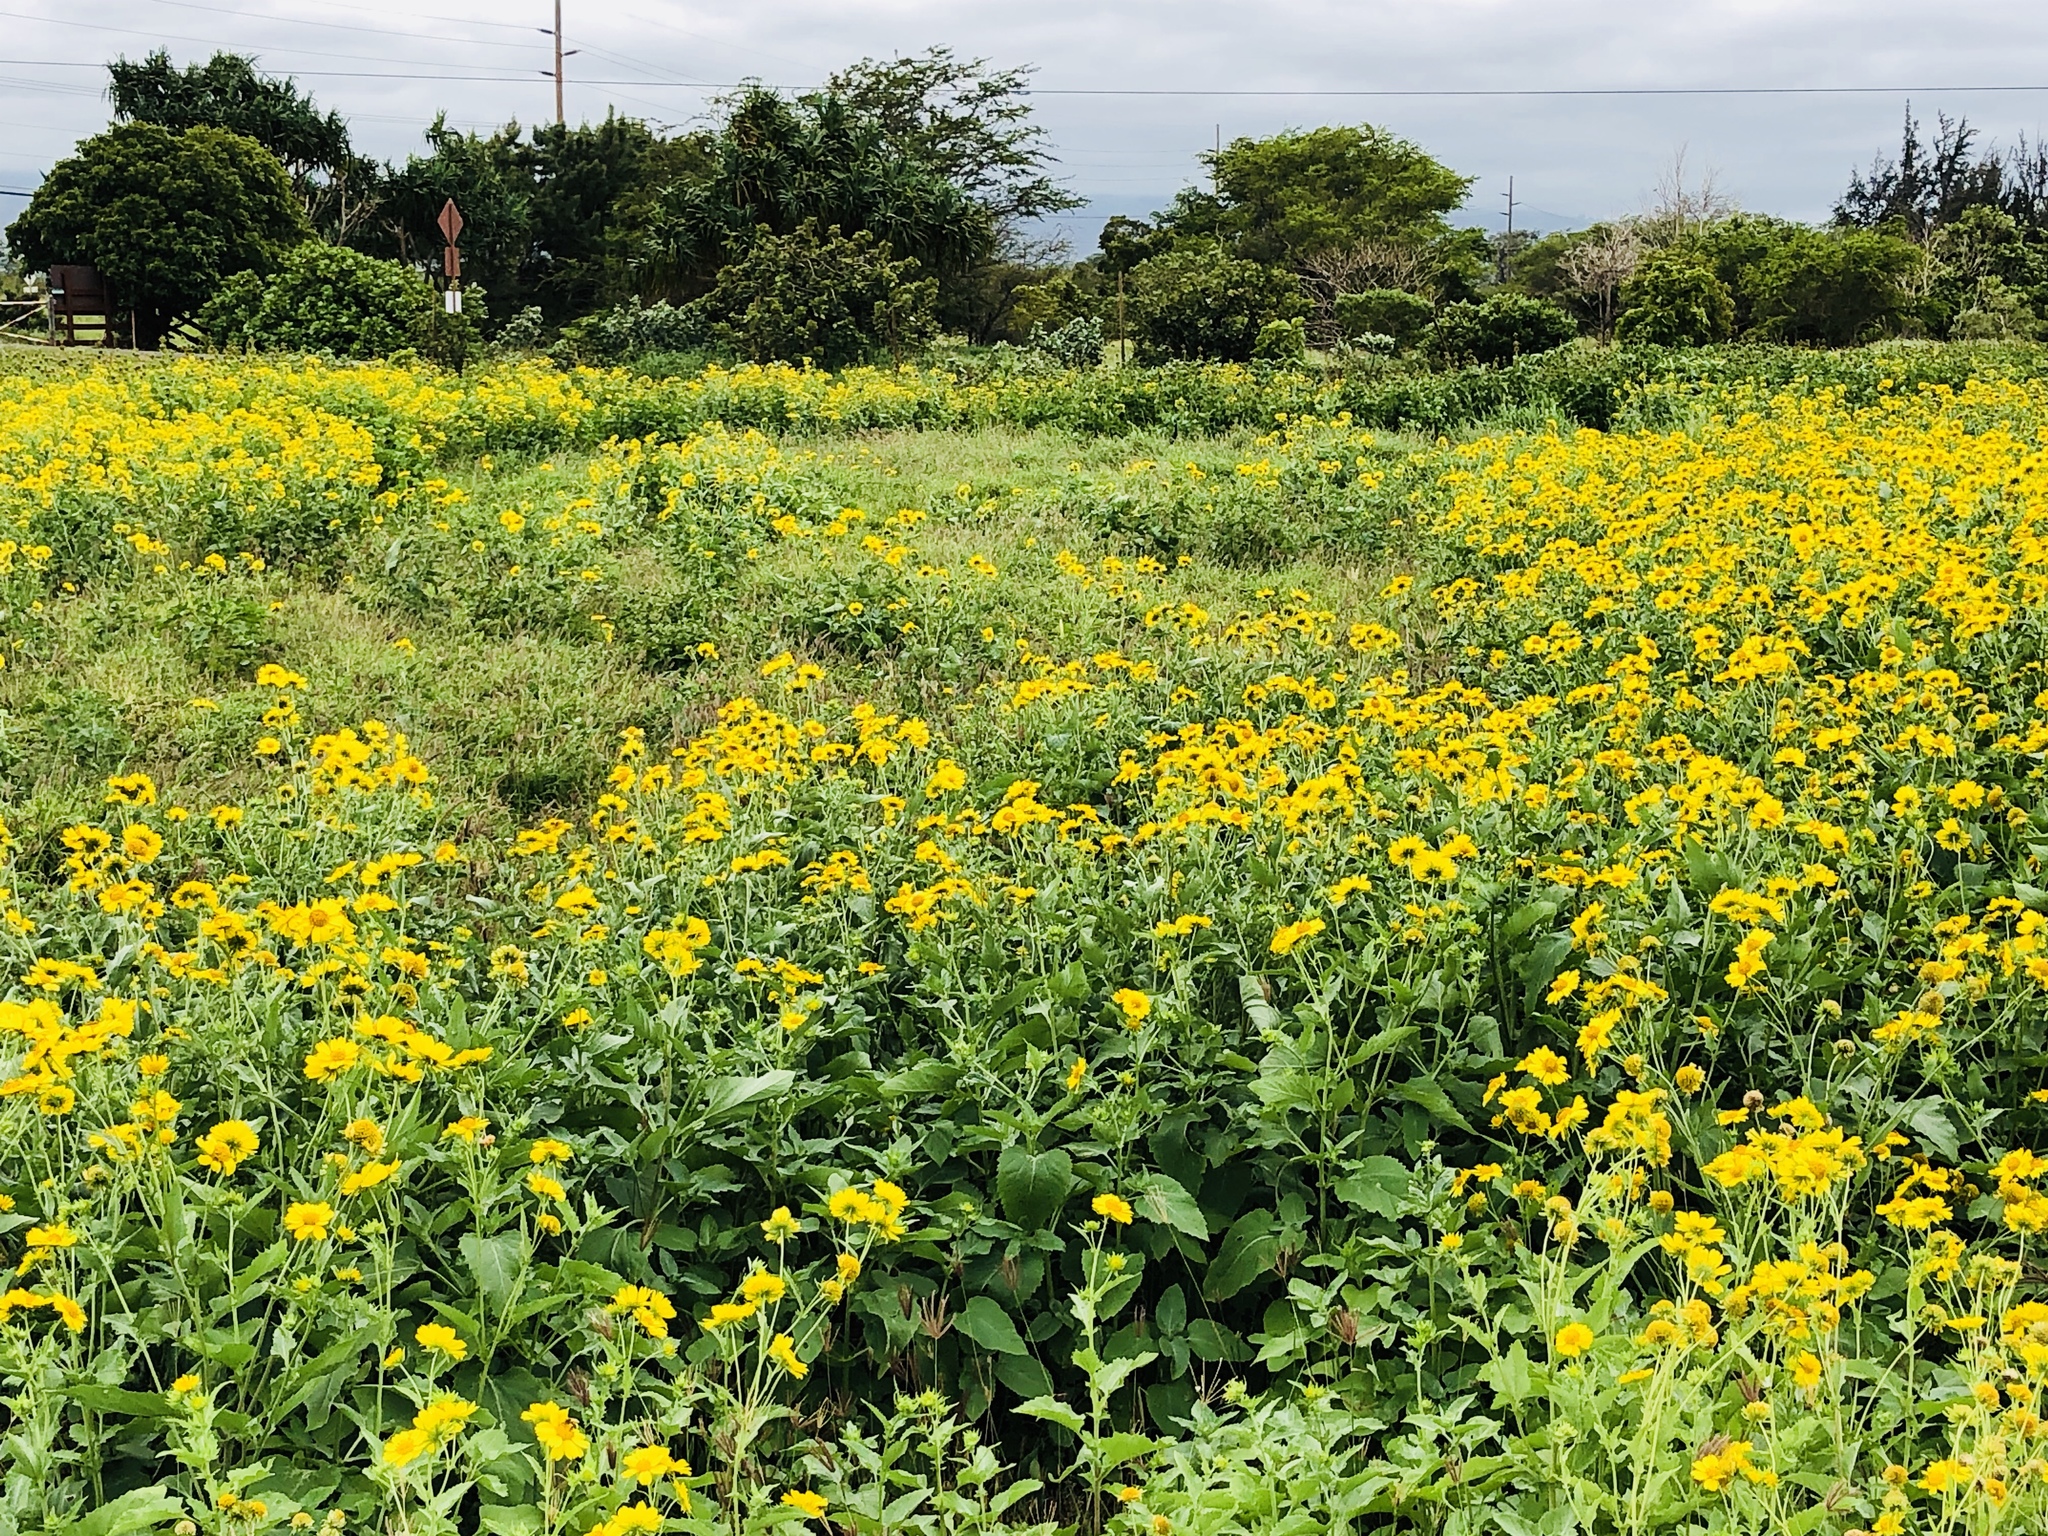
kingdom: Plantae
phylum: Tracheophyta
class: Magnoliopsida
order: Asterales
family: Asteraceae
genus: Verbesina
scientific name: Verbesina encelioides
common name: Golden crownbeard
